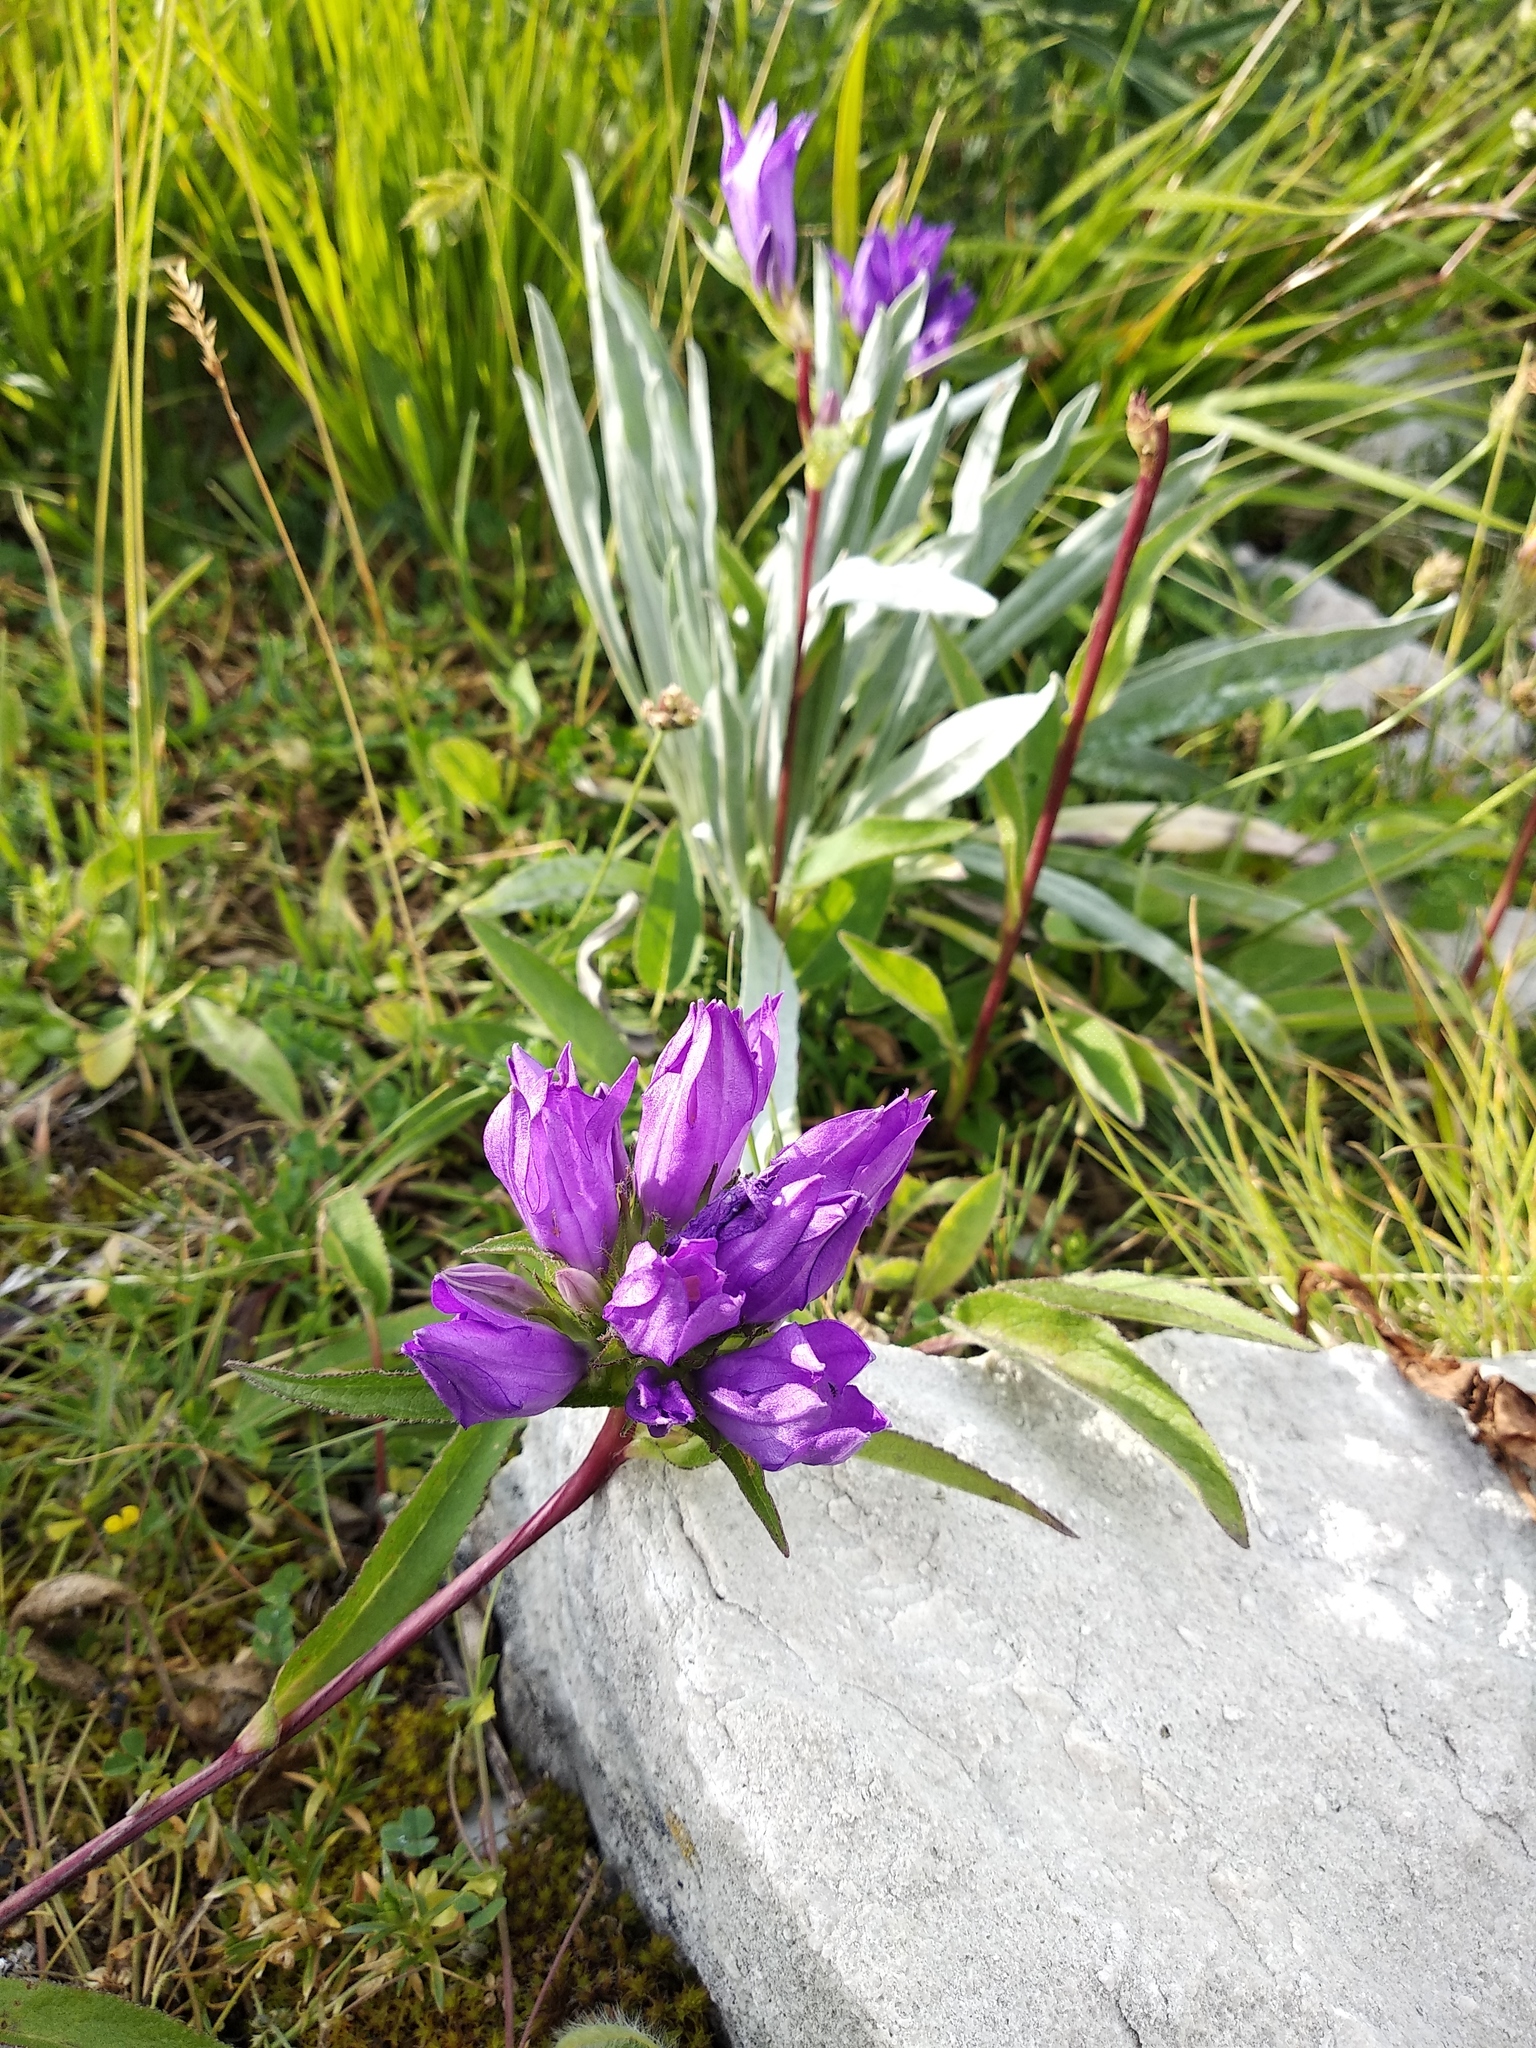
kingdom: Plantae
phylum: Tracheophyta
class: Magnoliopsida
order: Asterales
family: Campanulaceae
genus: Campanula
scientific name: Campanula glomerata
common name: Clustered bellflower
